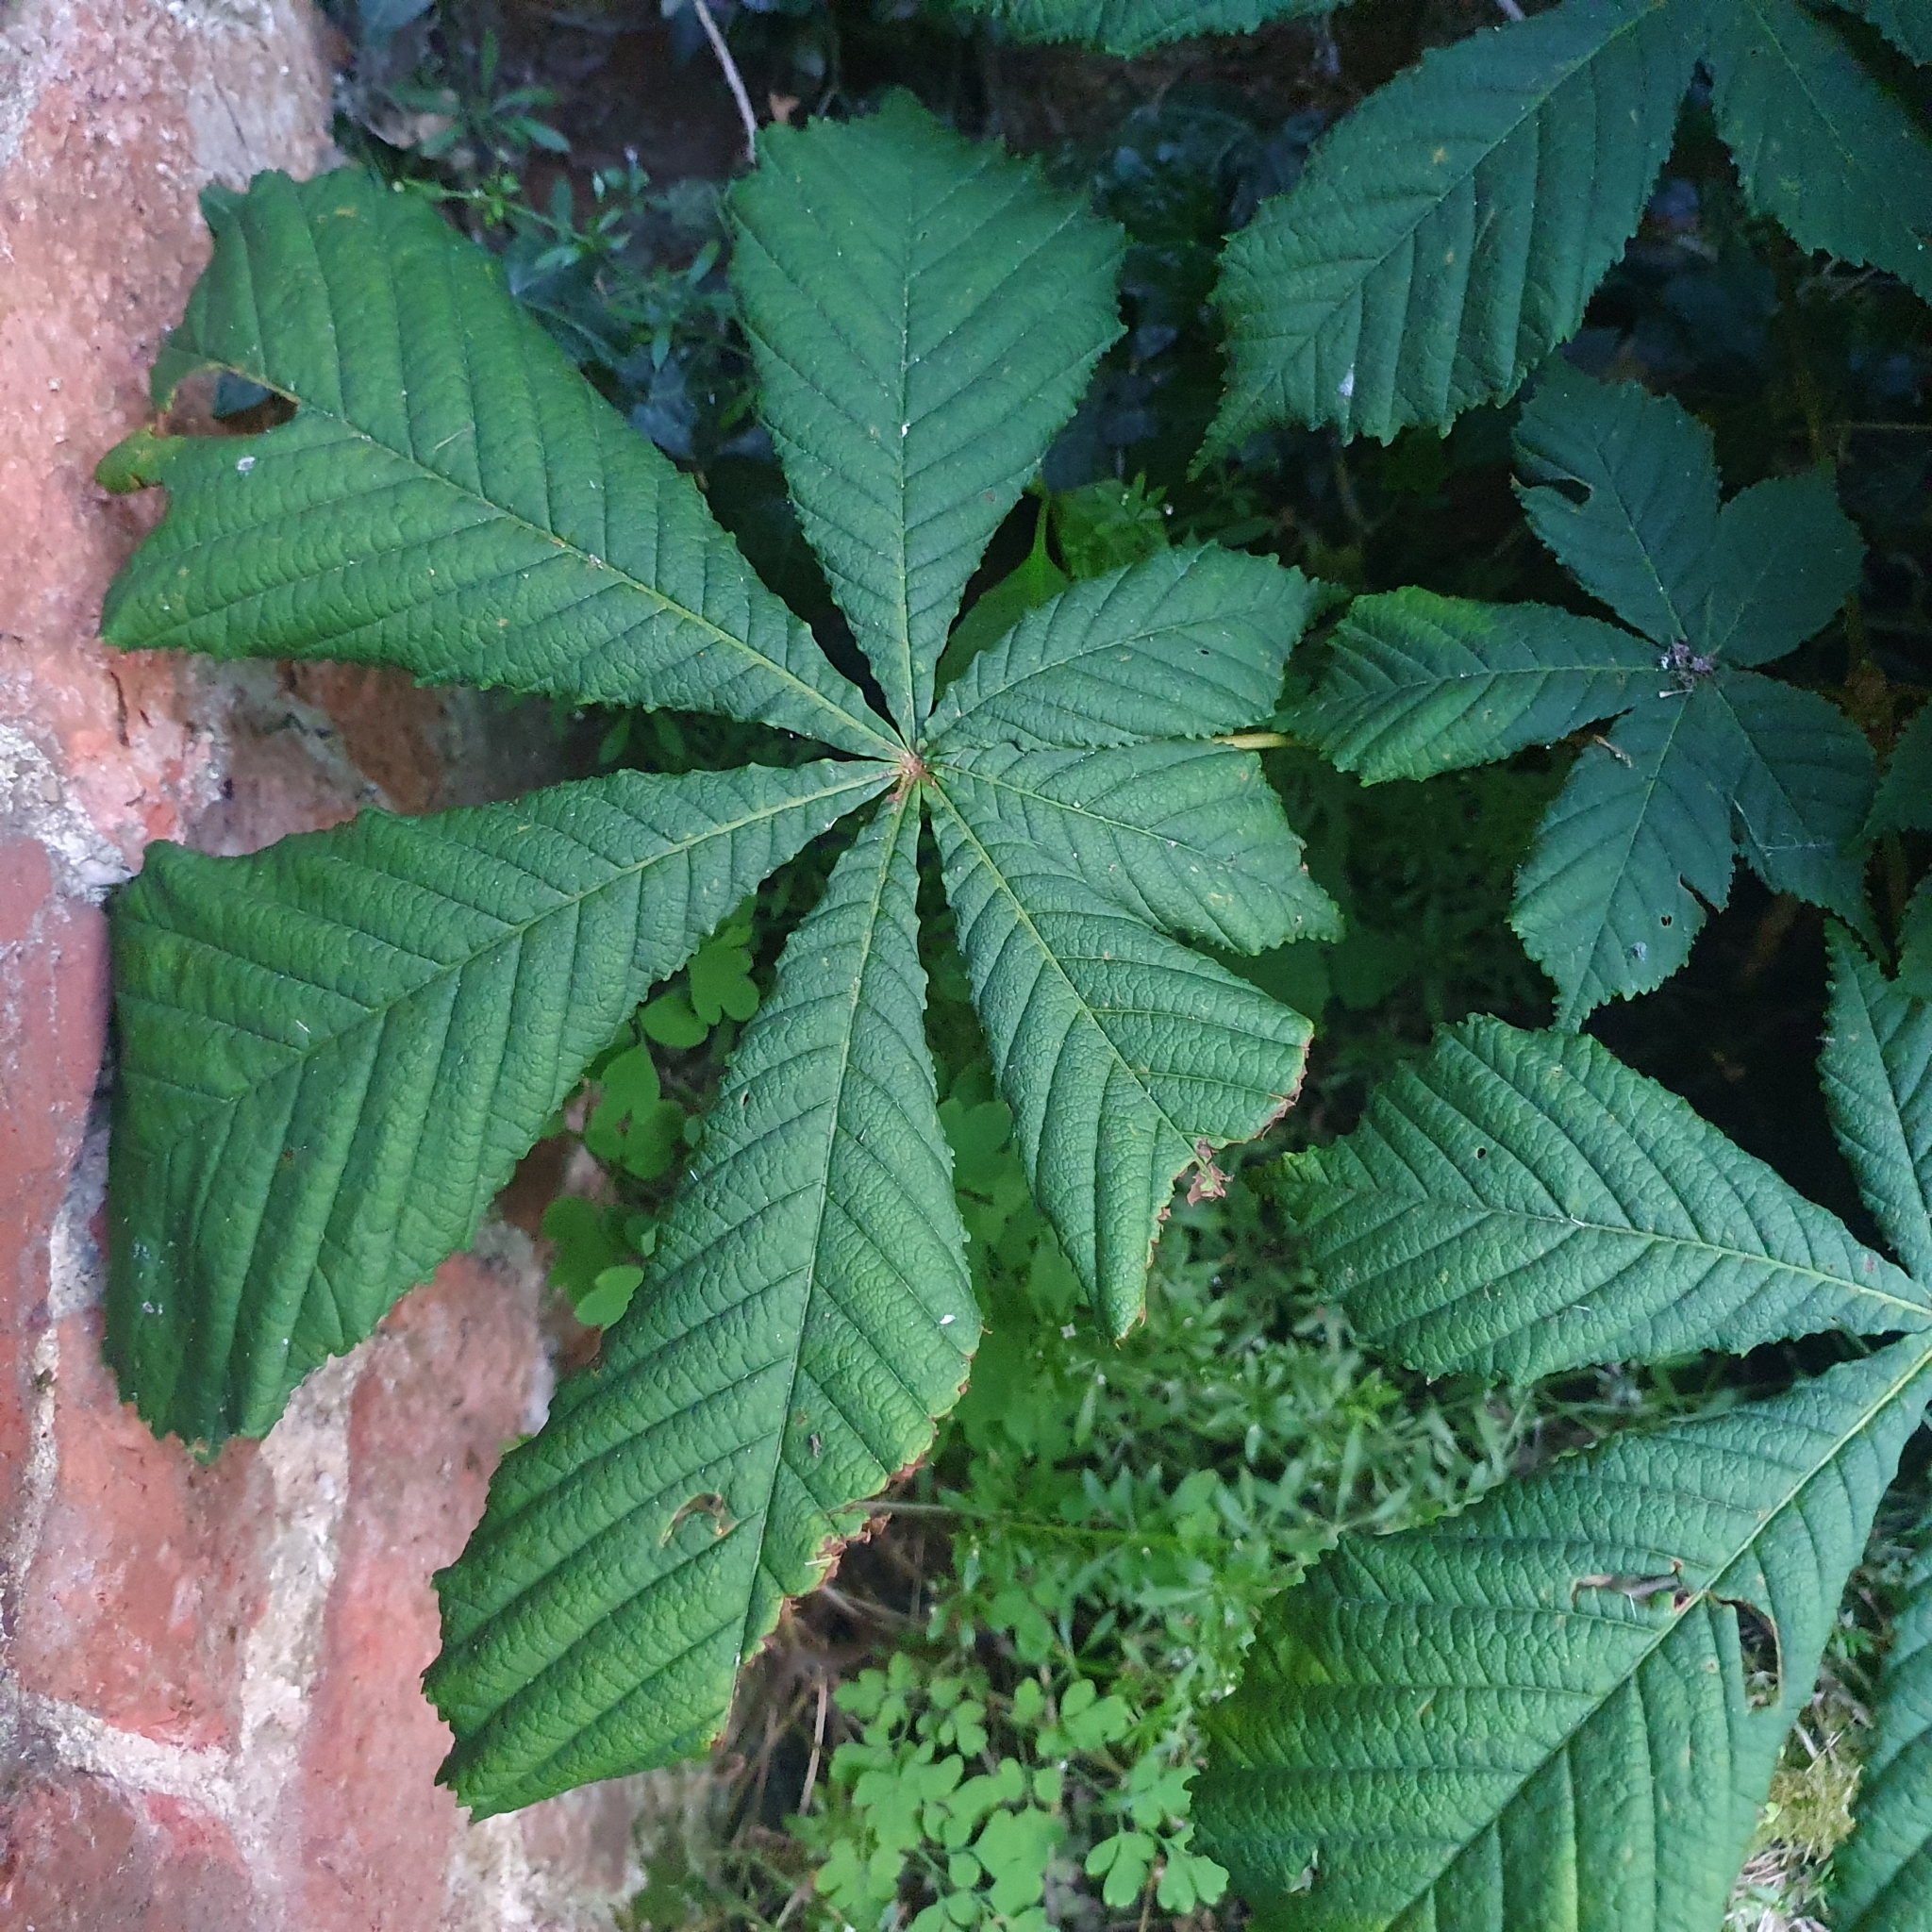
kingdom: Plantae
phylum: Tracheophyta
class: Magnoliopsida
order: Sapindales
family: Sapindaceae
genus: Aesculus
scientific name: Aesculus hippocastanum
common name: Horse-chestnut
